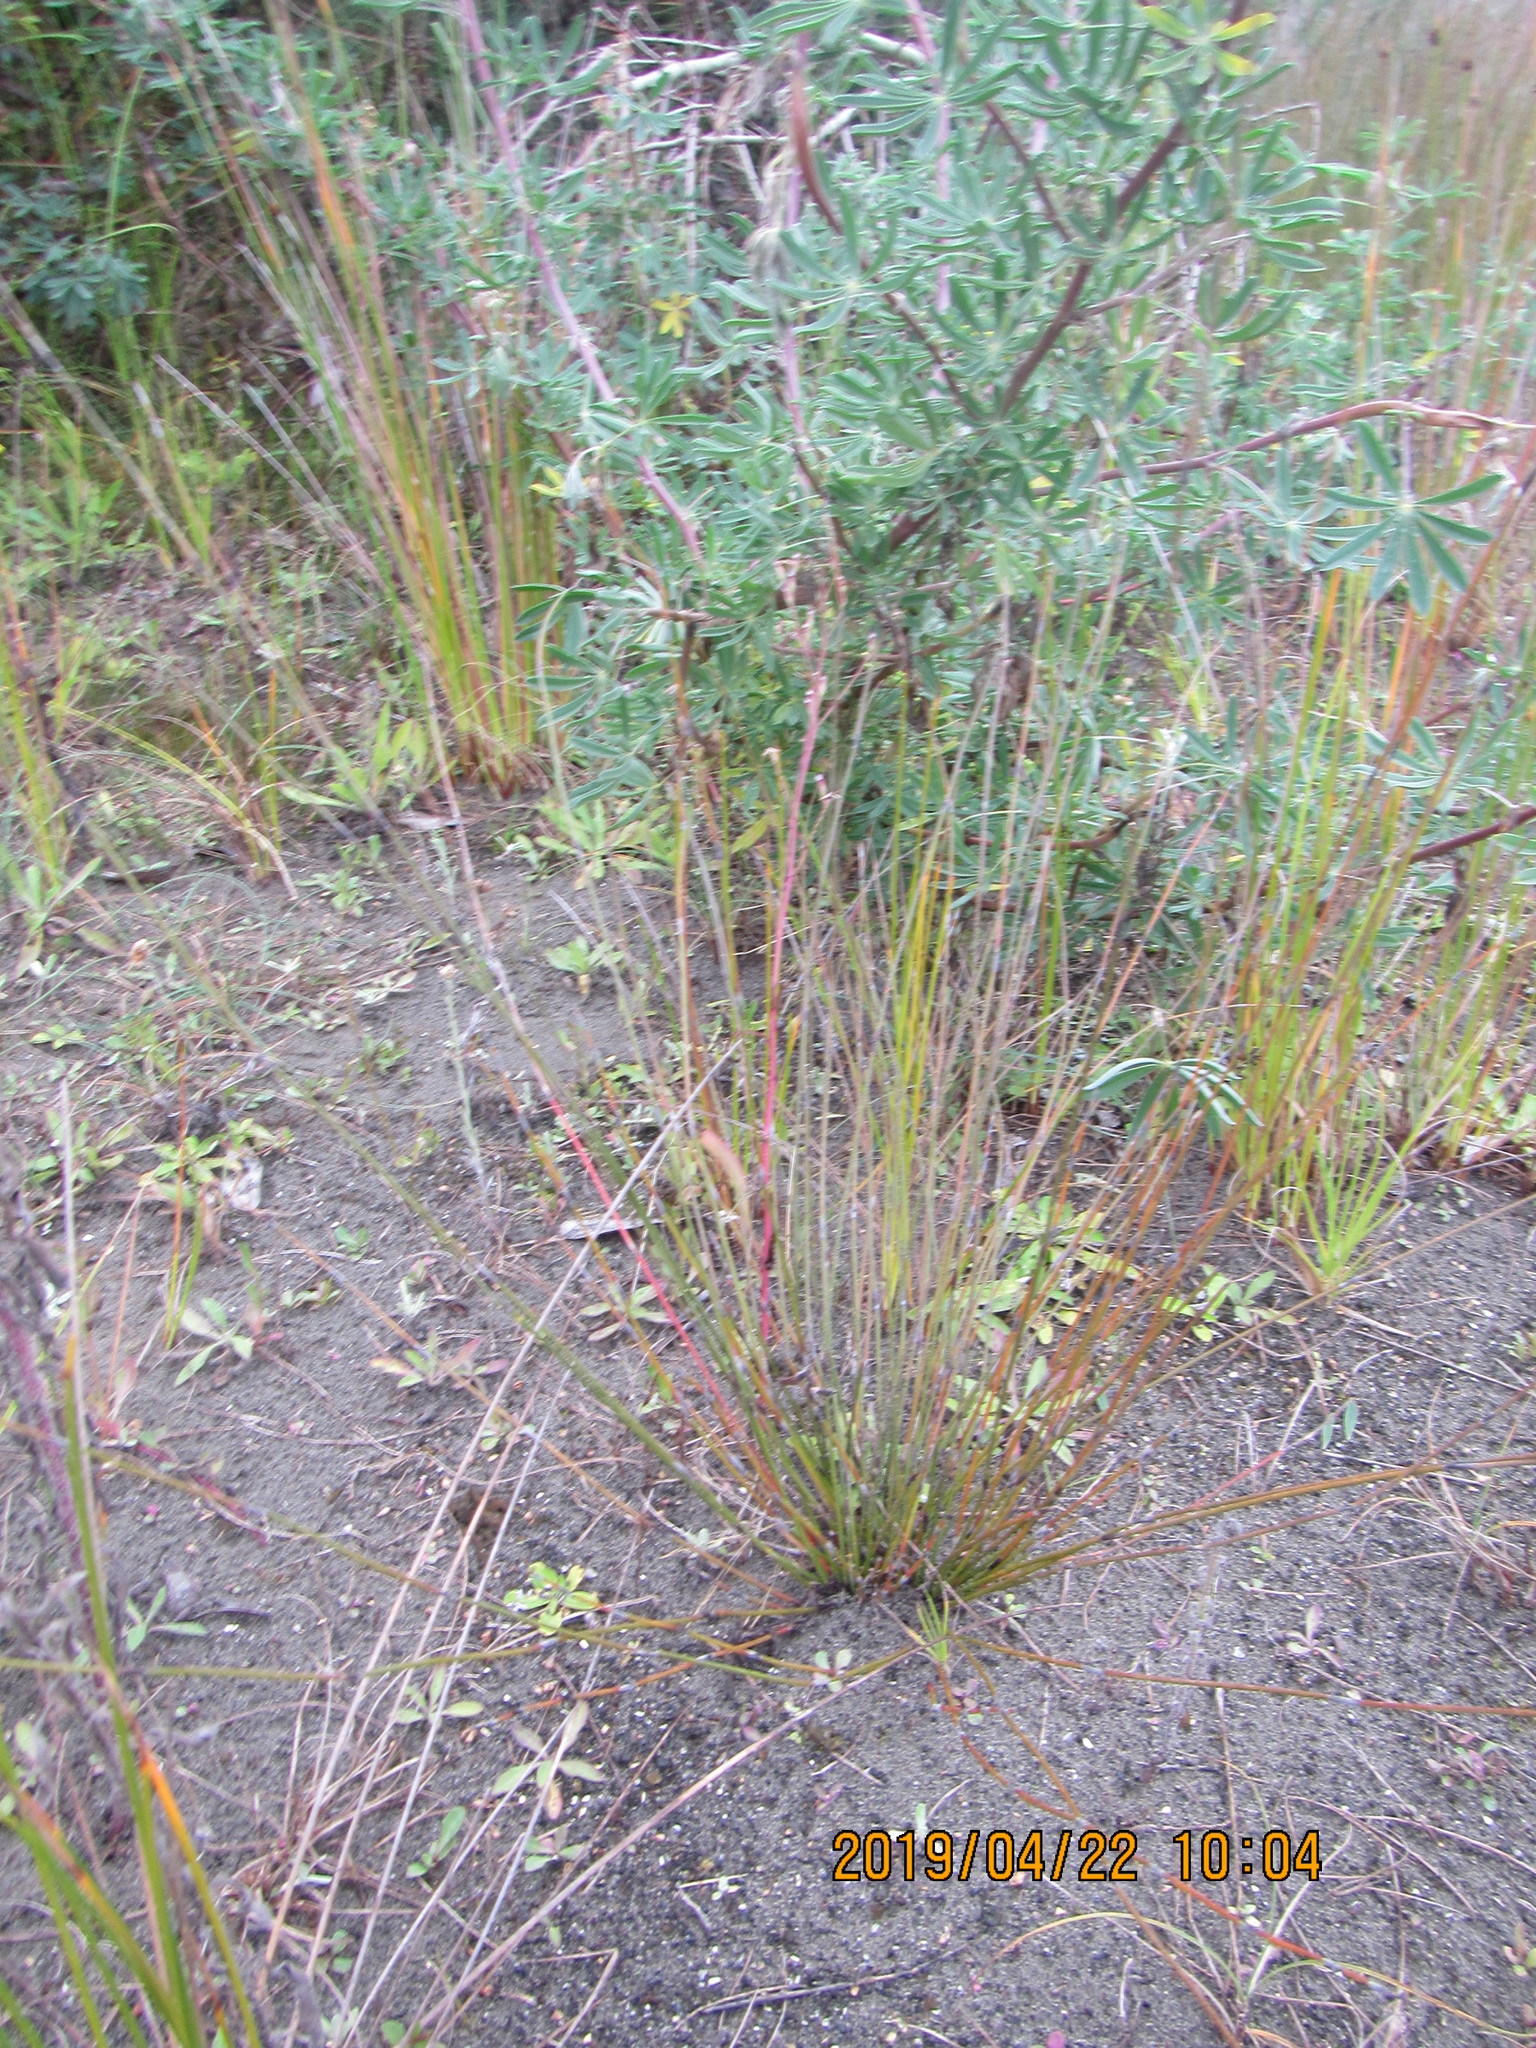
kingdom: Plantae
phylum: Tracheophyta
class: Liliopsida
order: Poales
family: Restionaceae
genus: Apodasmia
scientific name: Apodasmia similis
